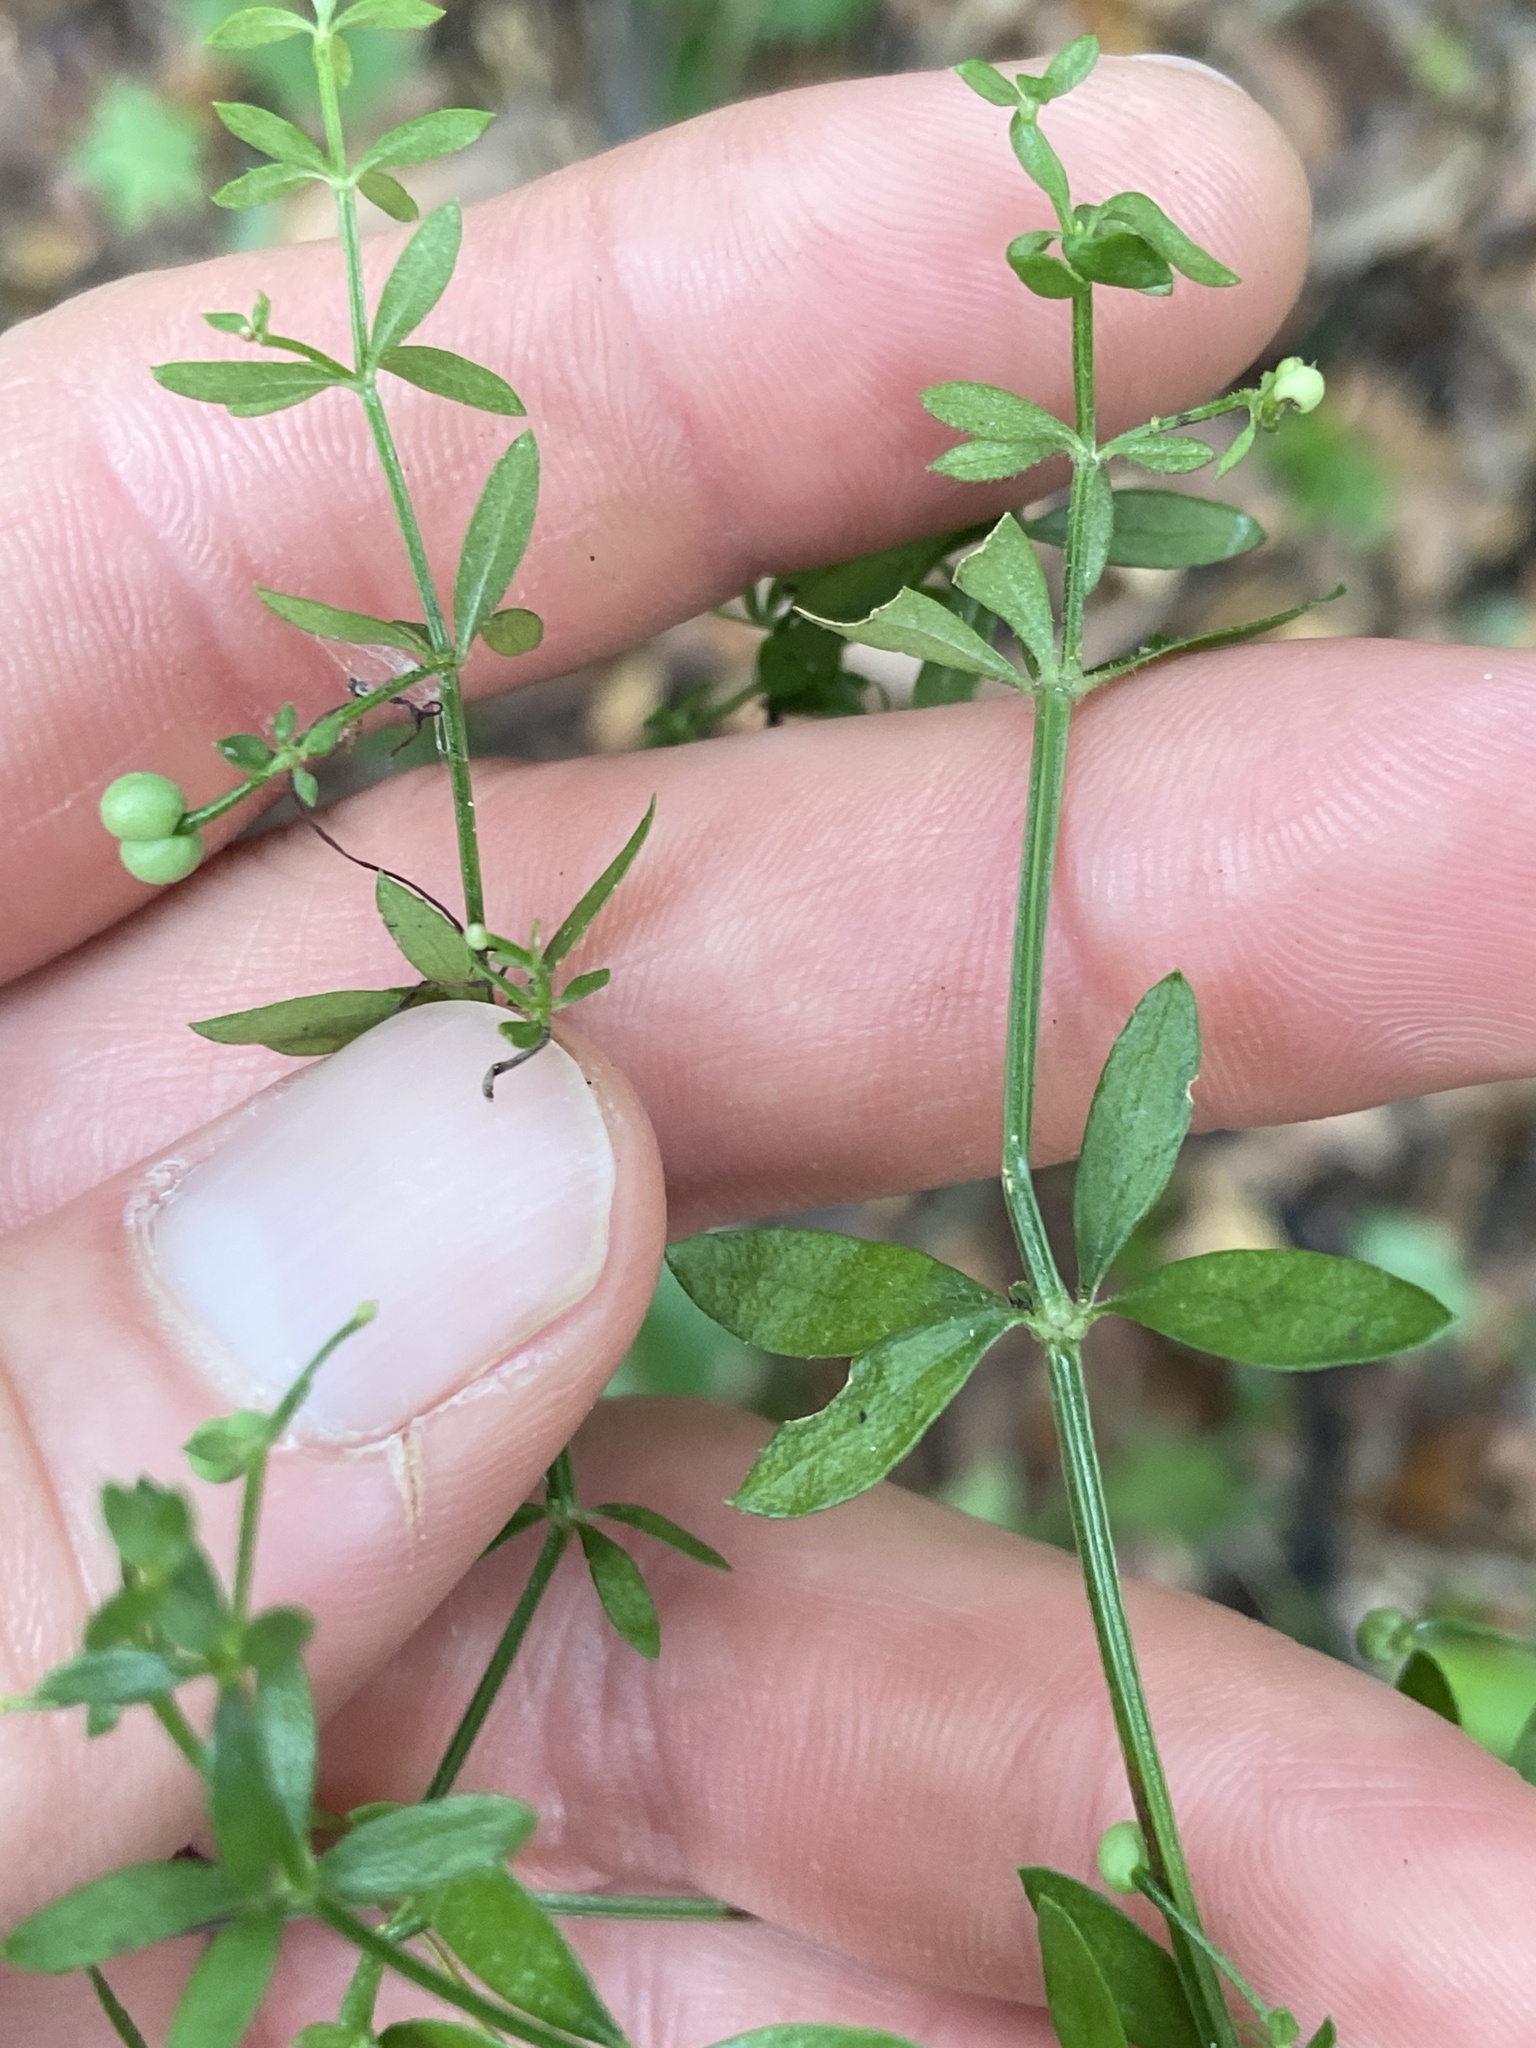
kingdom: Plantae
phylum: Tracheophyta
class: Magnoliopsida
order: Gentianales
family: Rubiaceae
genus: Galium
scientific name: Galium bermudense
